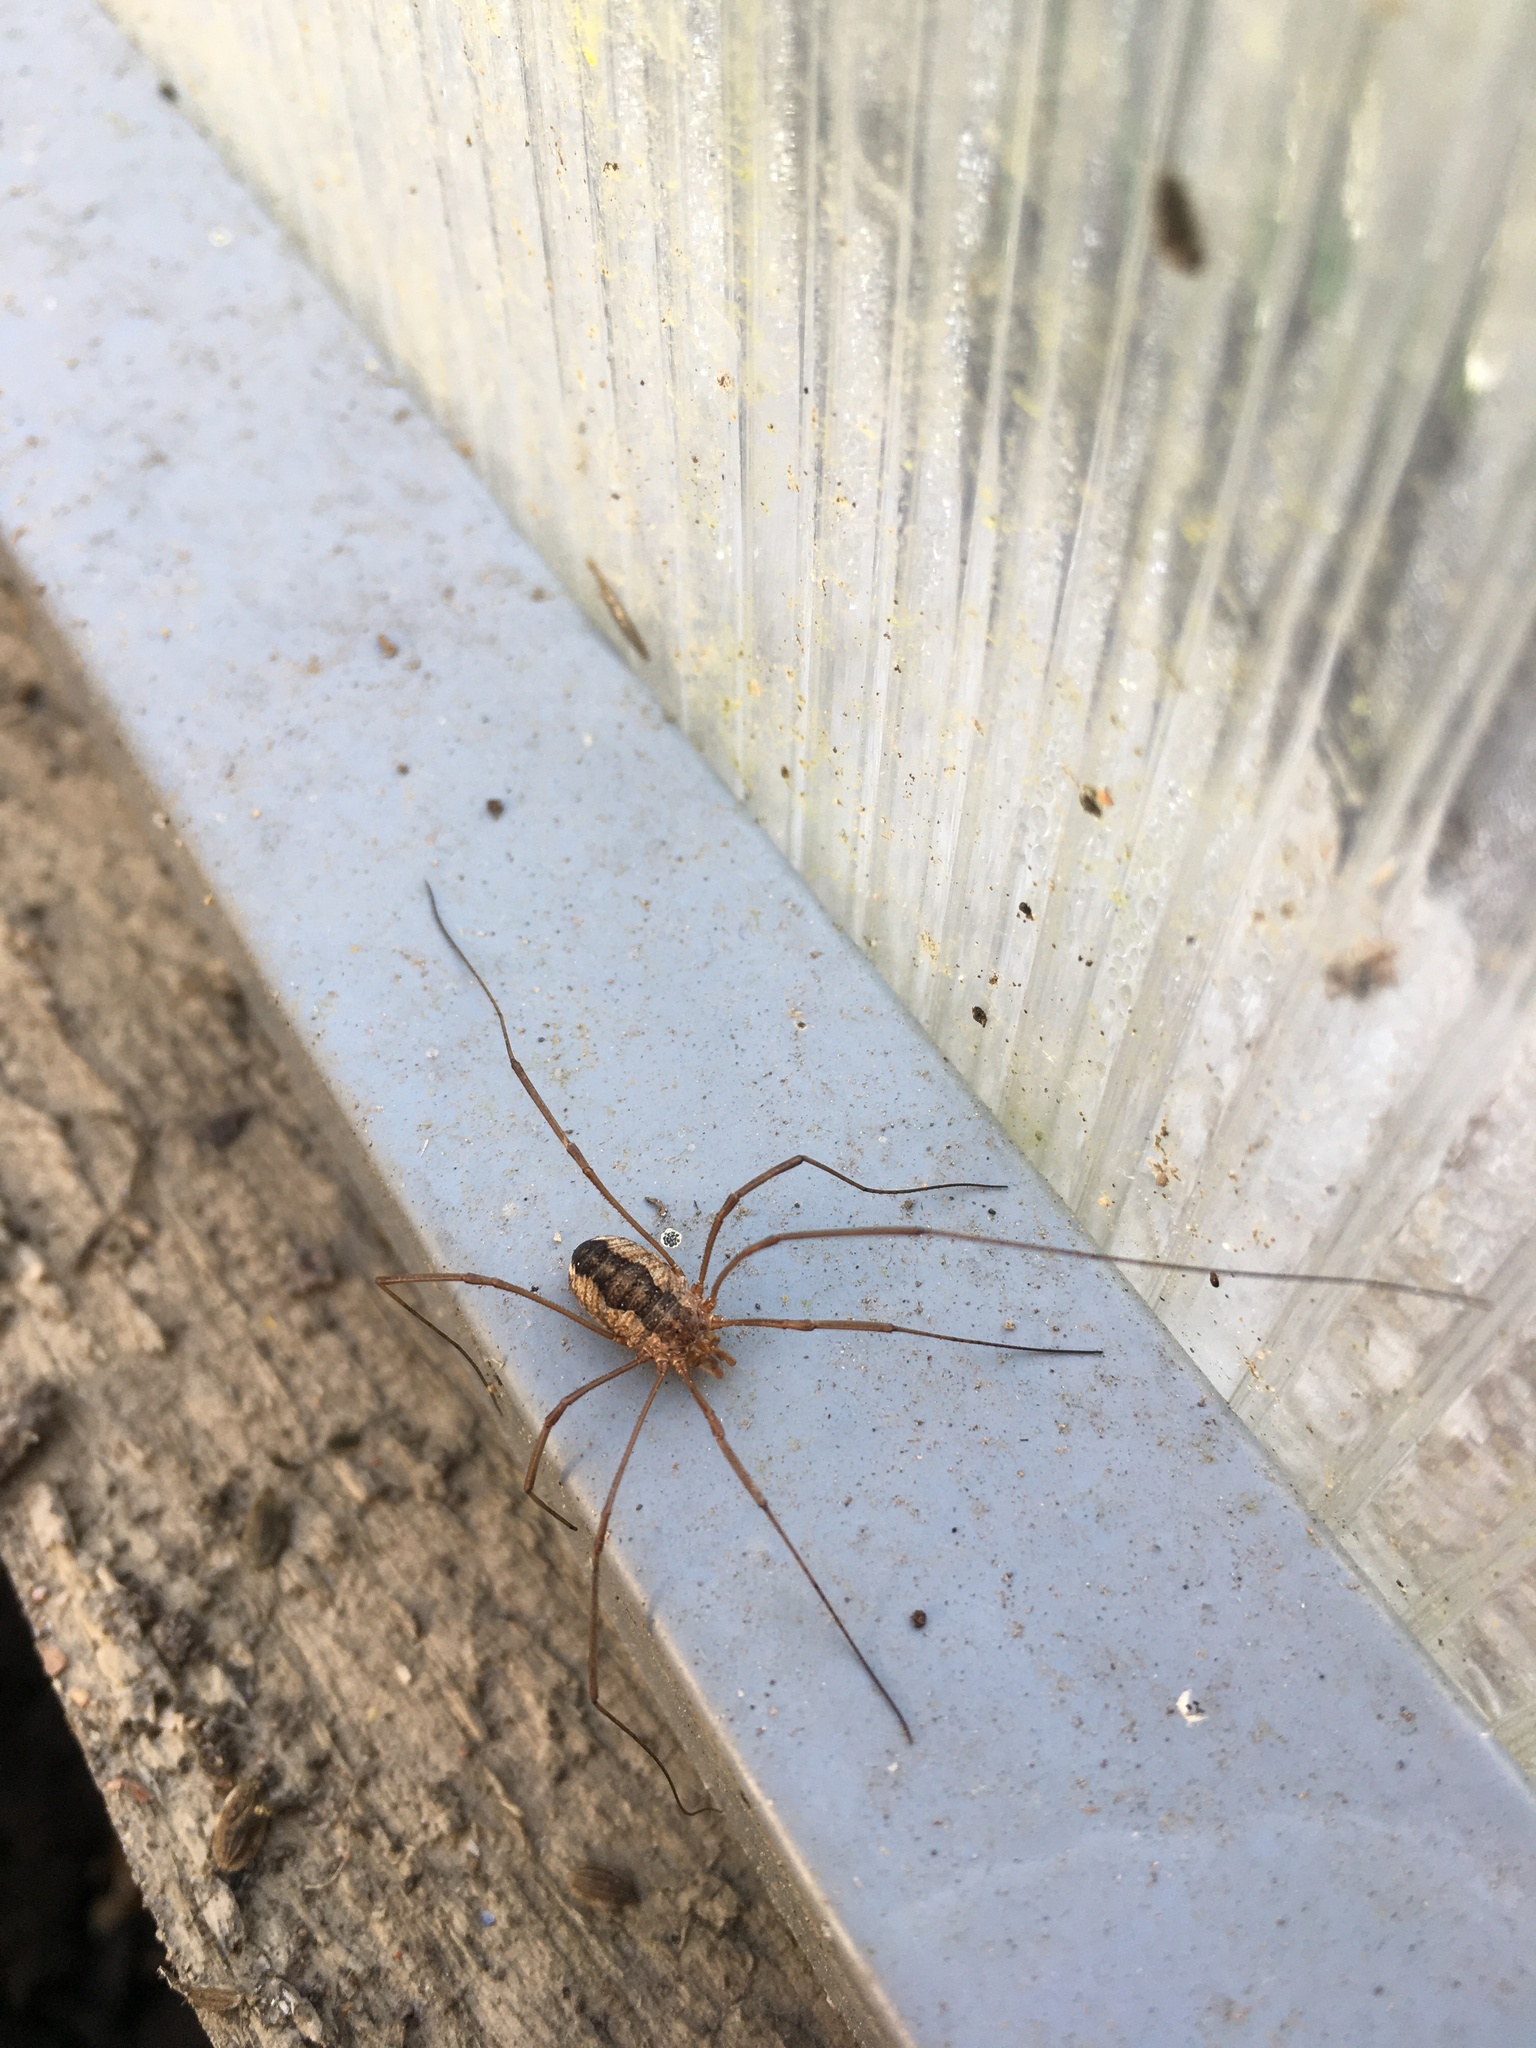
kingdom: Animalia
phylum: Arthropoda
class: Arachnida
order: Opiliones
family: Phalangiidae
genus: Phalangium
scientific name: Phalangium opilio
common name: Daddy longleg
